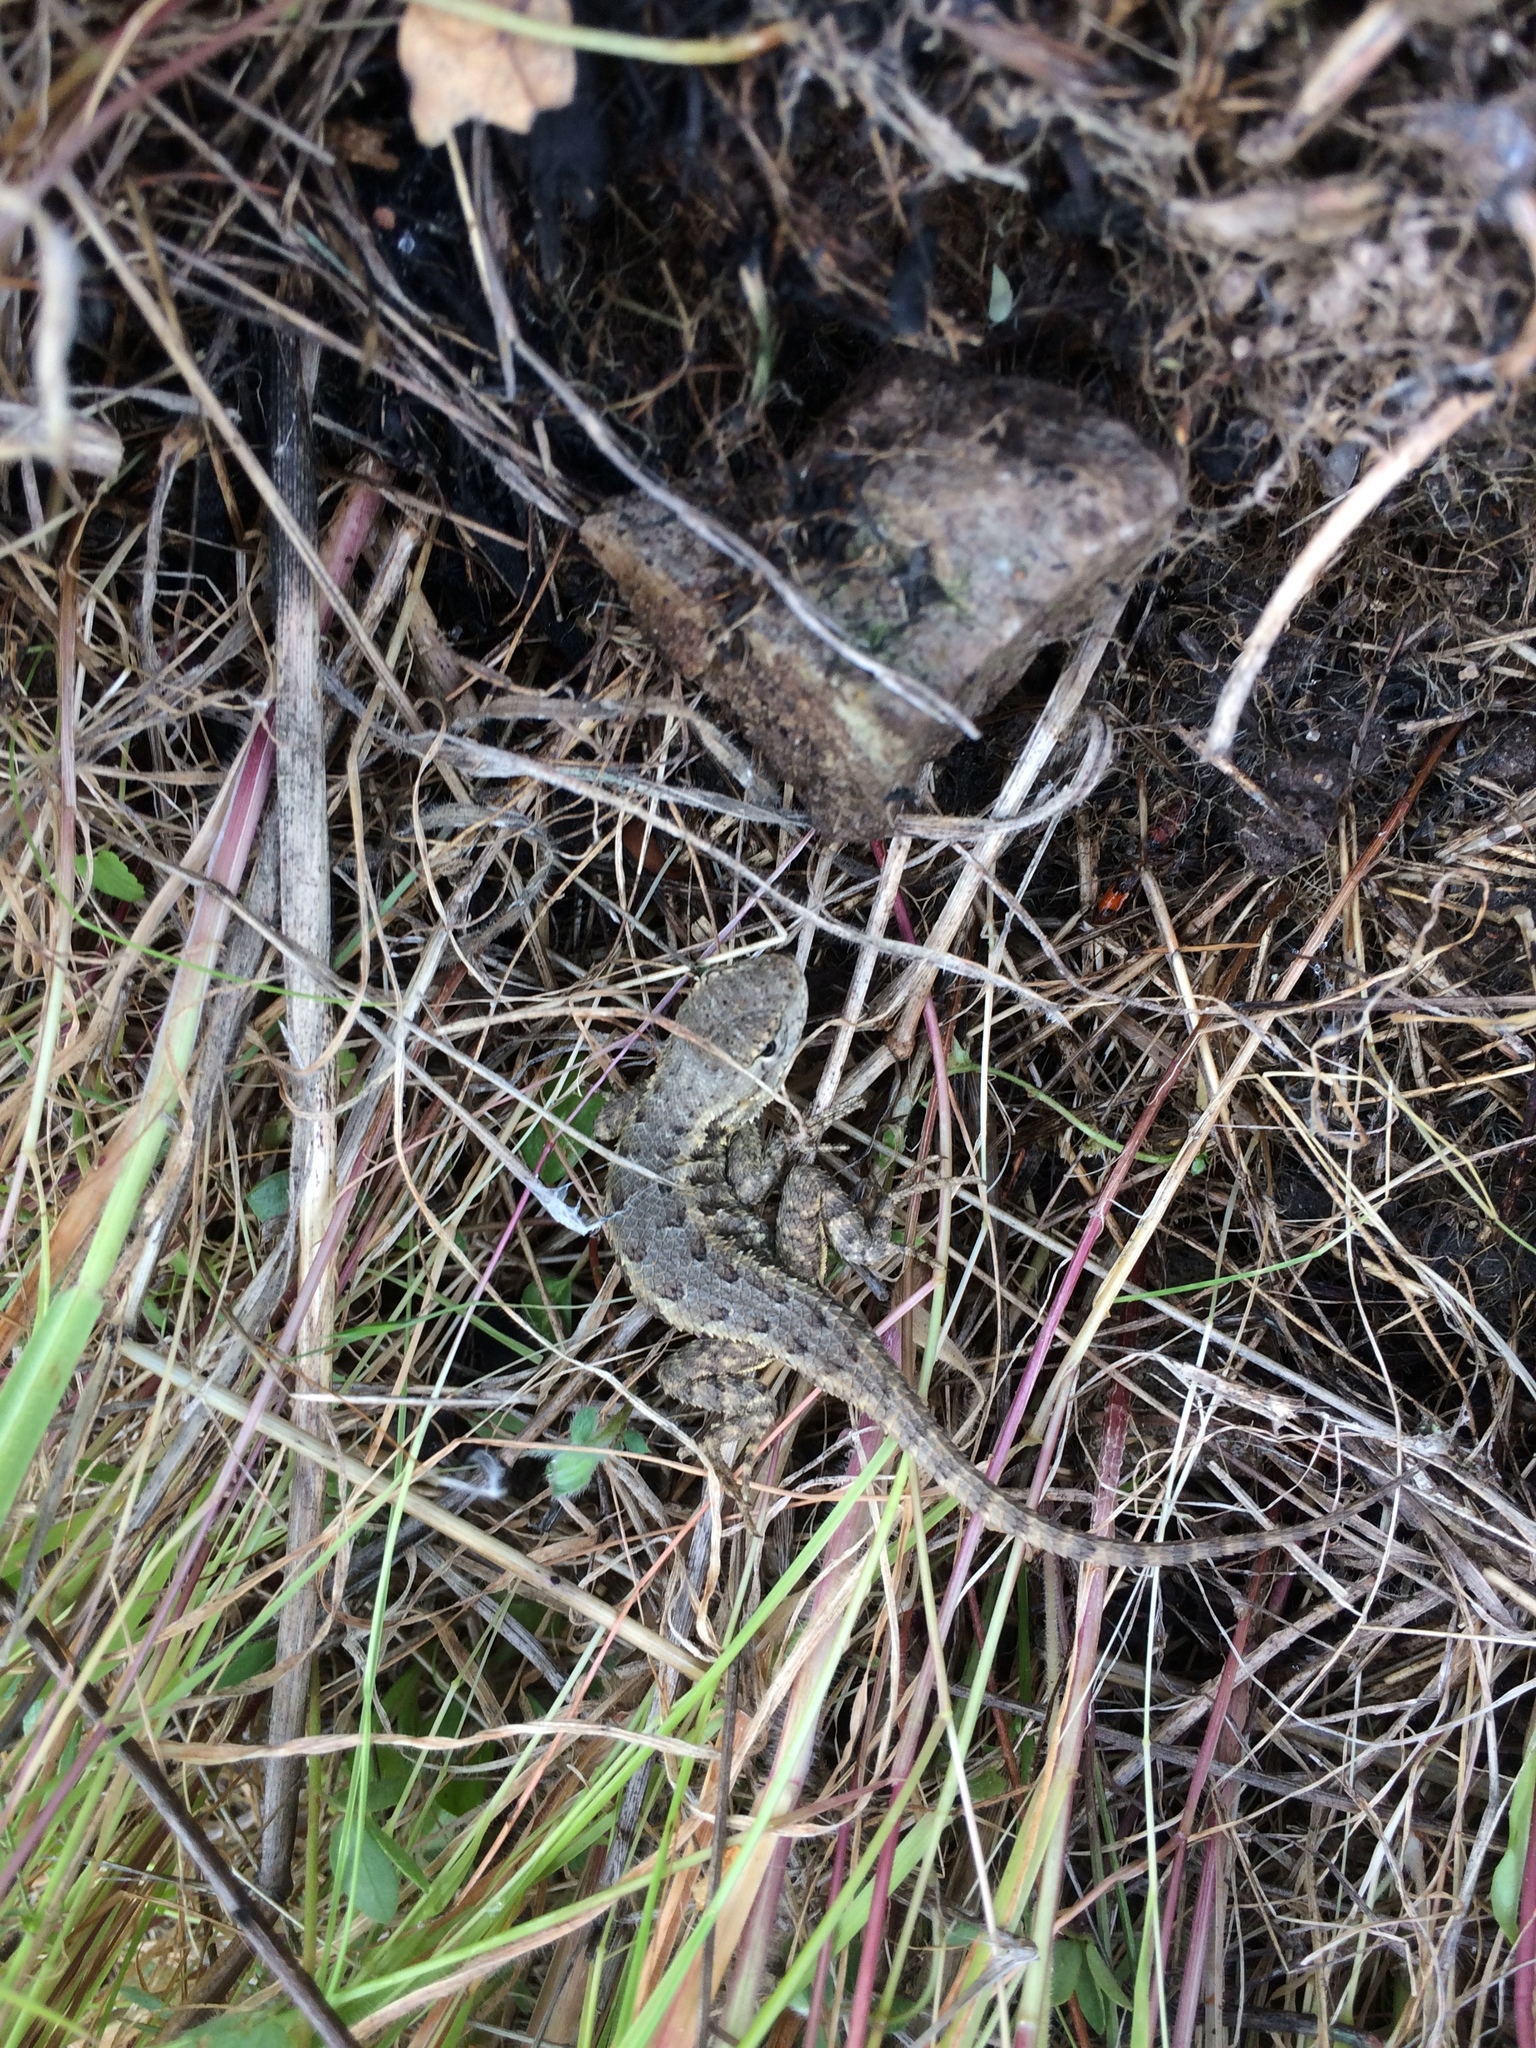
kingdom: Animalia
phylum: Chordata
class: Squamata
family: Phrynosomatidae
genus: Sceloporus
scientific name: Sceloporus occidentalis
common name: Western fence lizard
